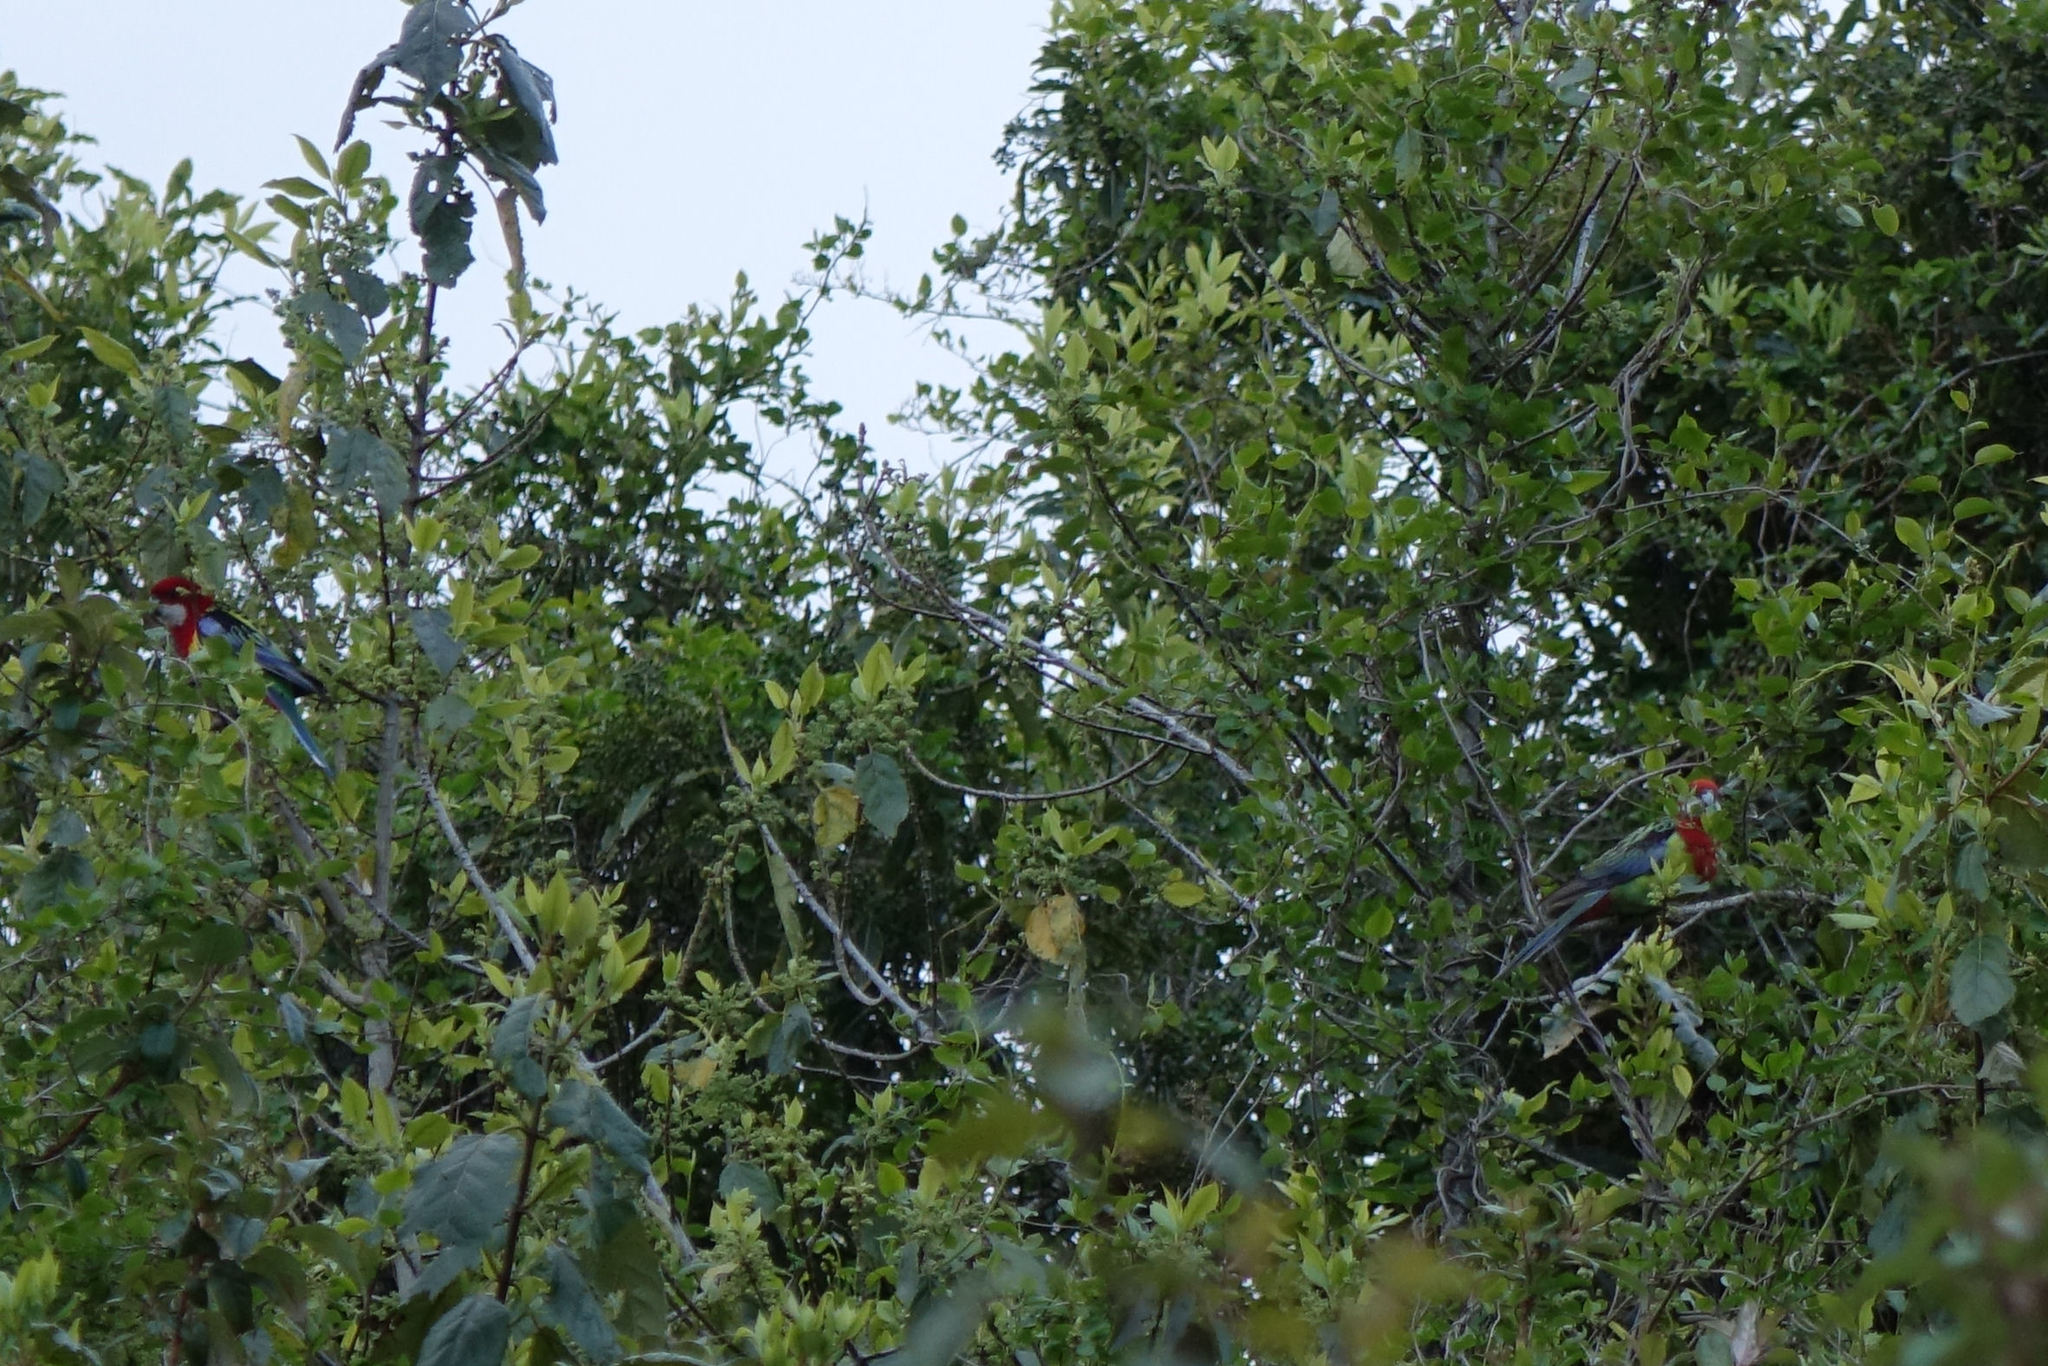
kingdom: Animalia
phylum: Chordata
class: Aves
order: Psittaciformes
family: Psittacidae
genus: Platycercus
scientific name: Platycercus eximius
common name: Eastern rosella
